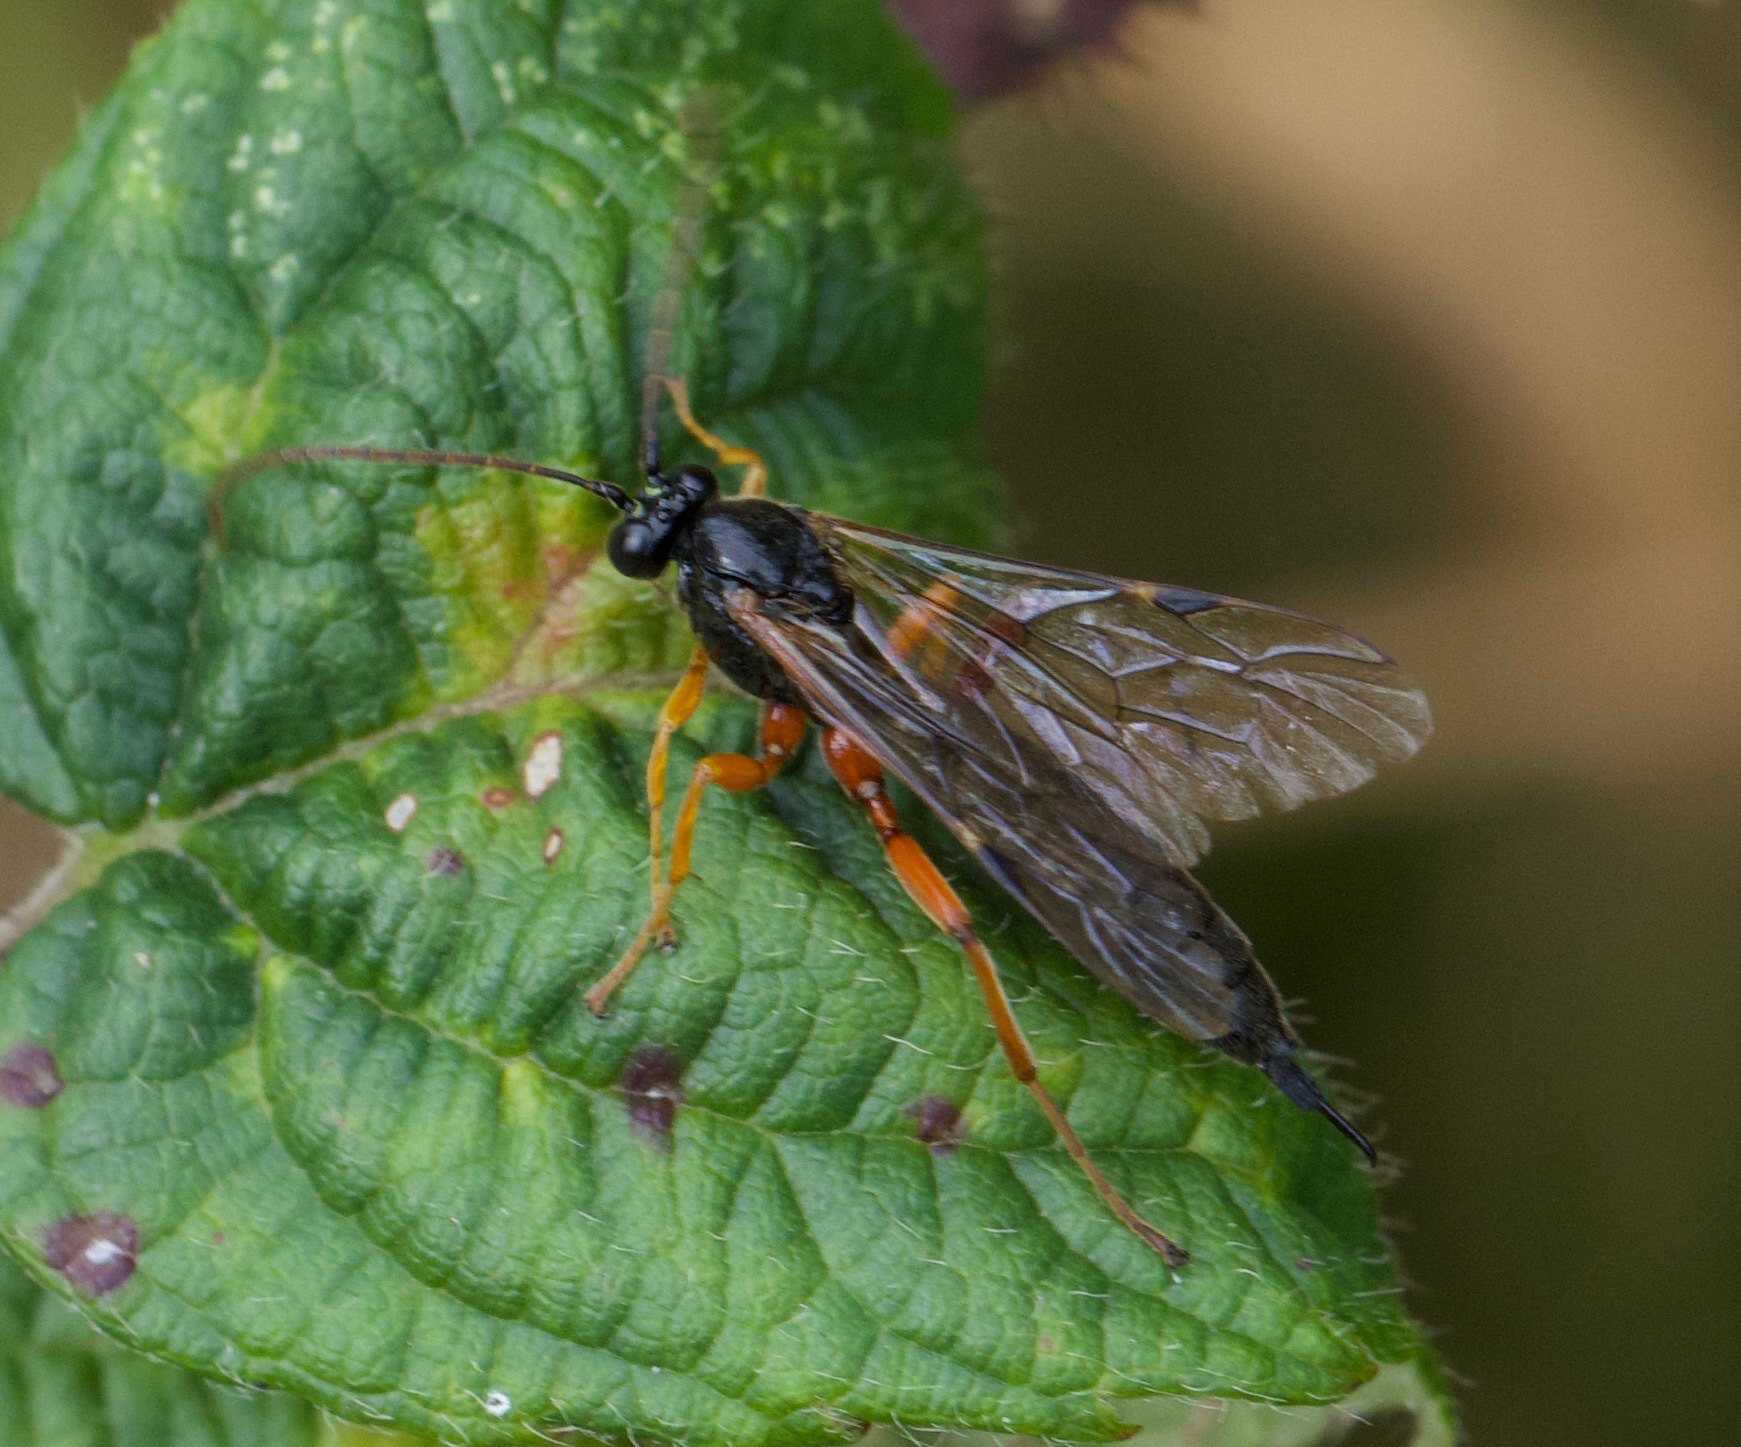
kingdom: Animalia
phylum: Arthropoda
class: Insecta
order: Hymenoptera
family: Ichneumonidae
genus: Apechthis
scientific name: Apechthis compunctor
